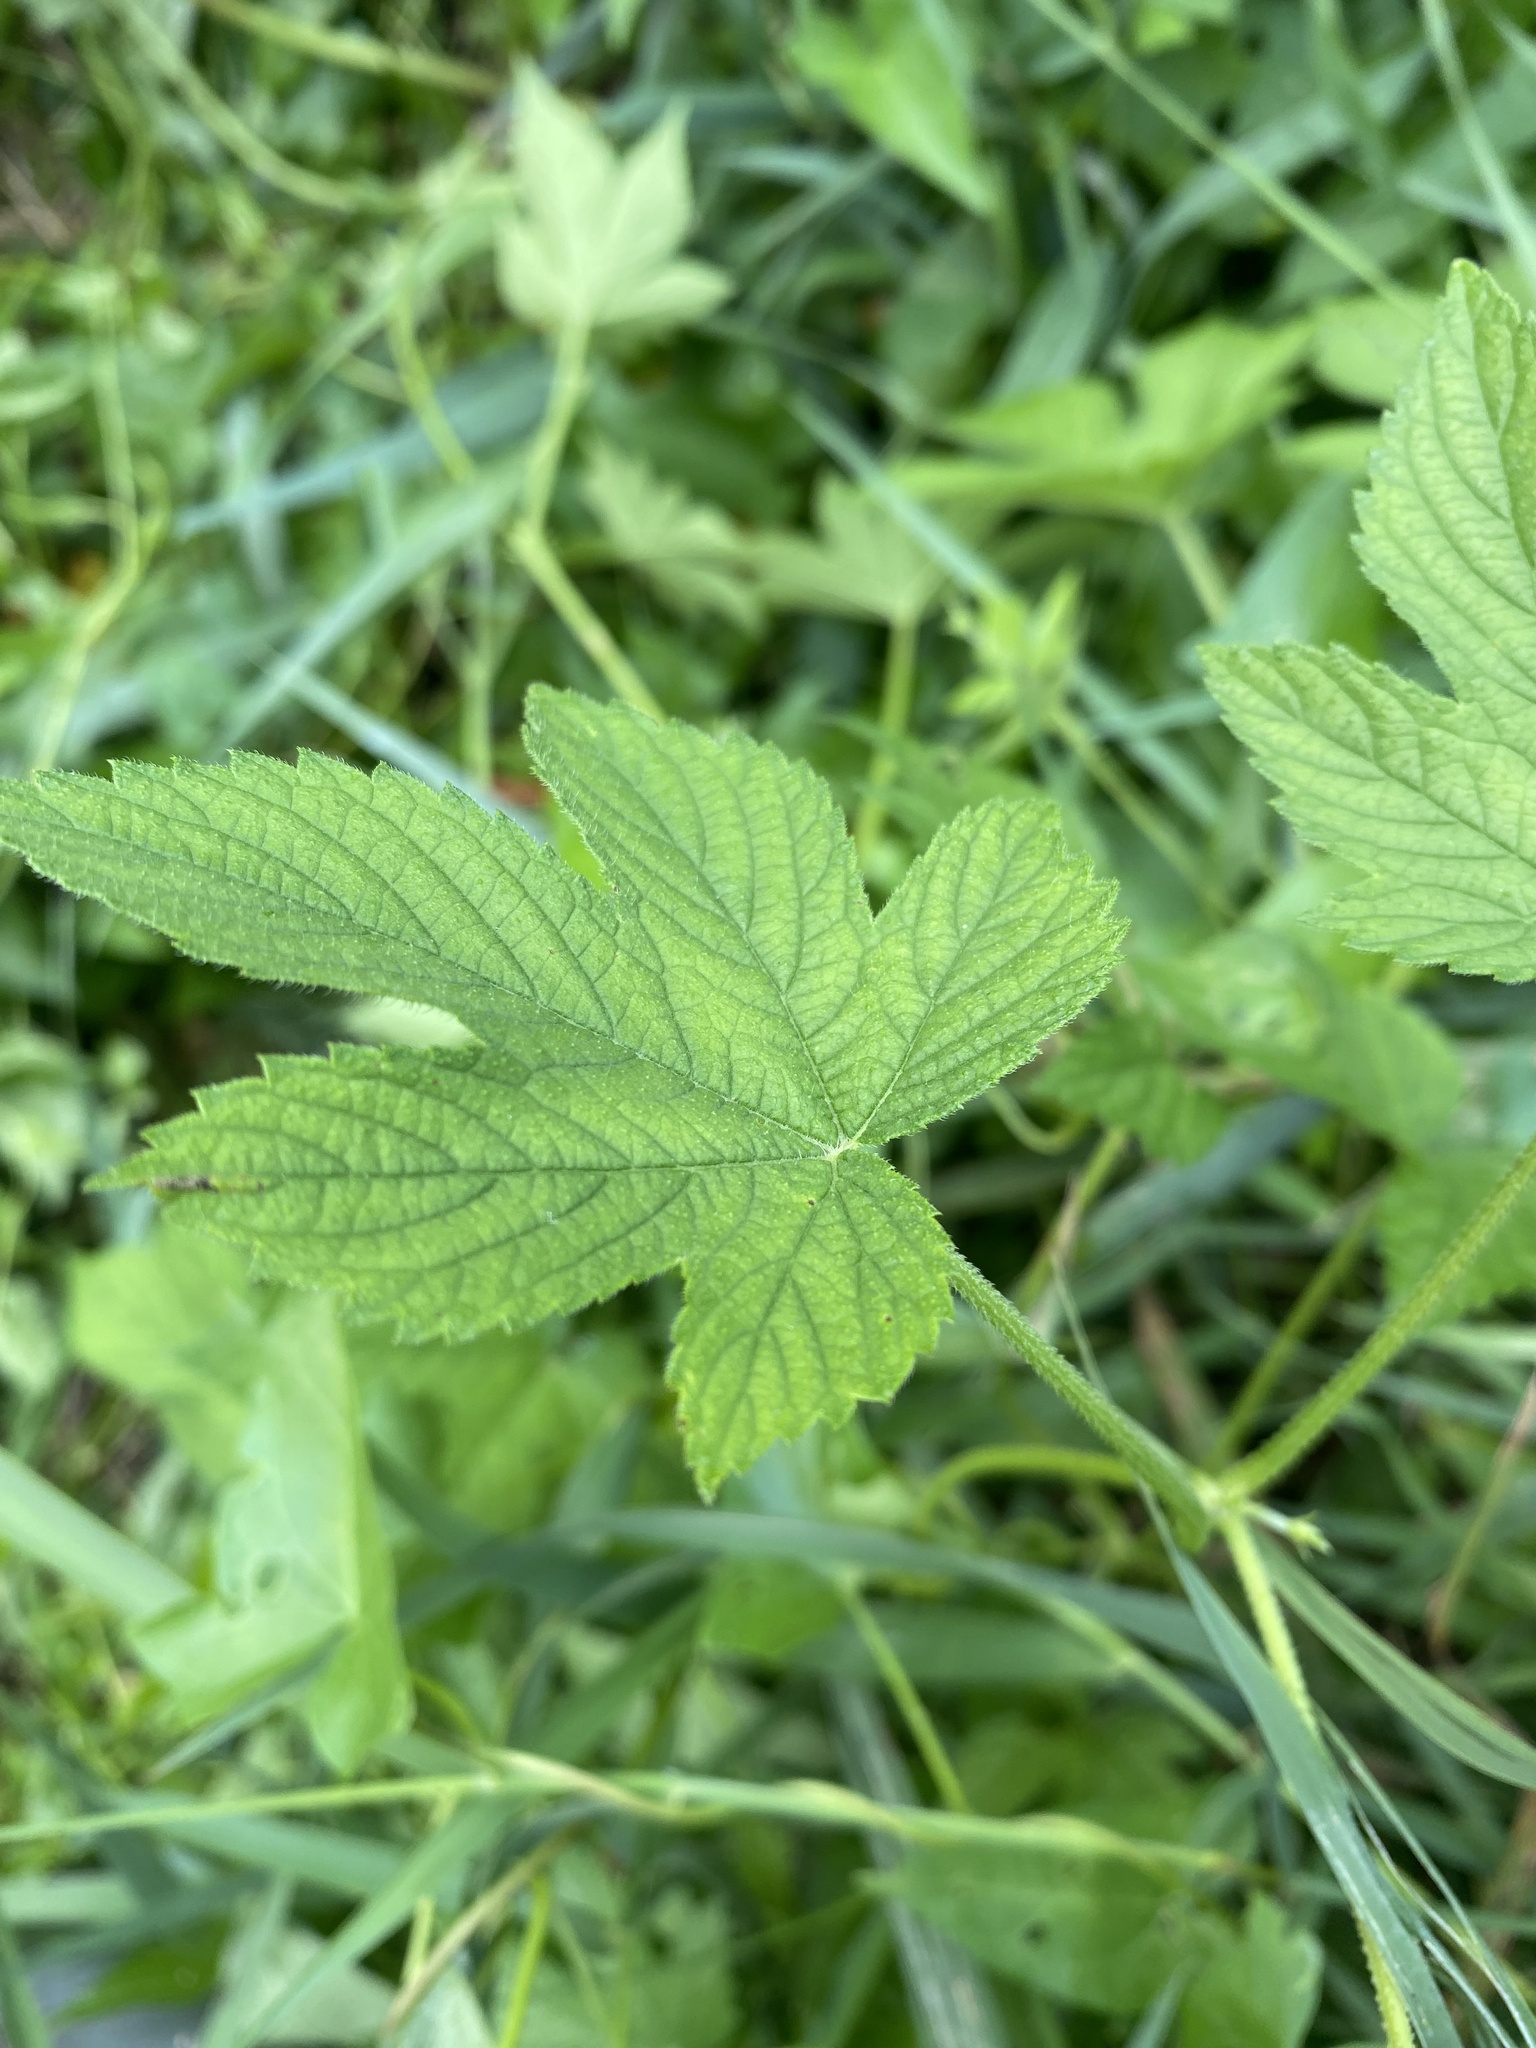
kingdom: Plantae
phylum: Tracheophyta
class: Magnoliopsida
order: Rosales
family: Cannabaceae
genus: Humulus
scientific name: Humulus scandens
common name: Japanese hop
